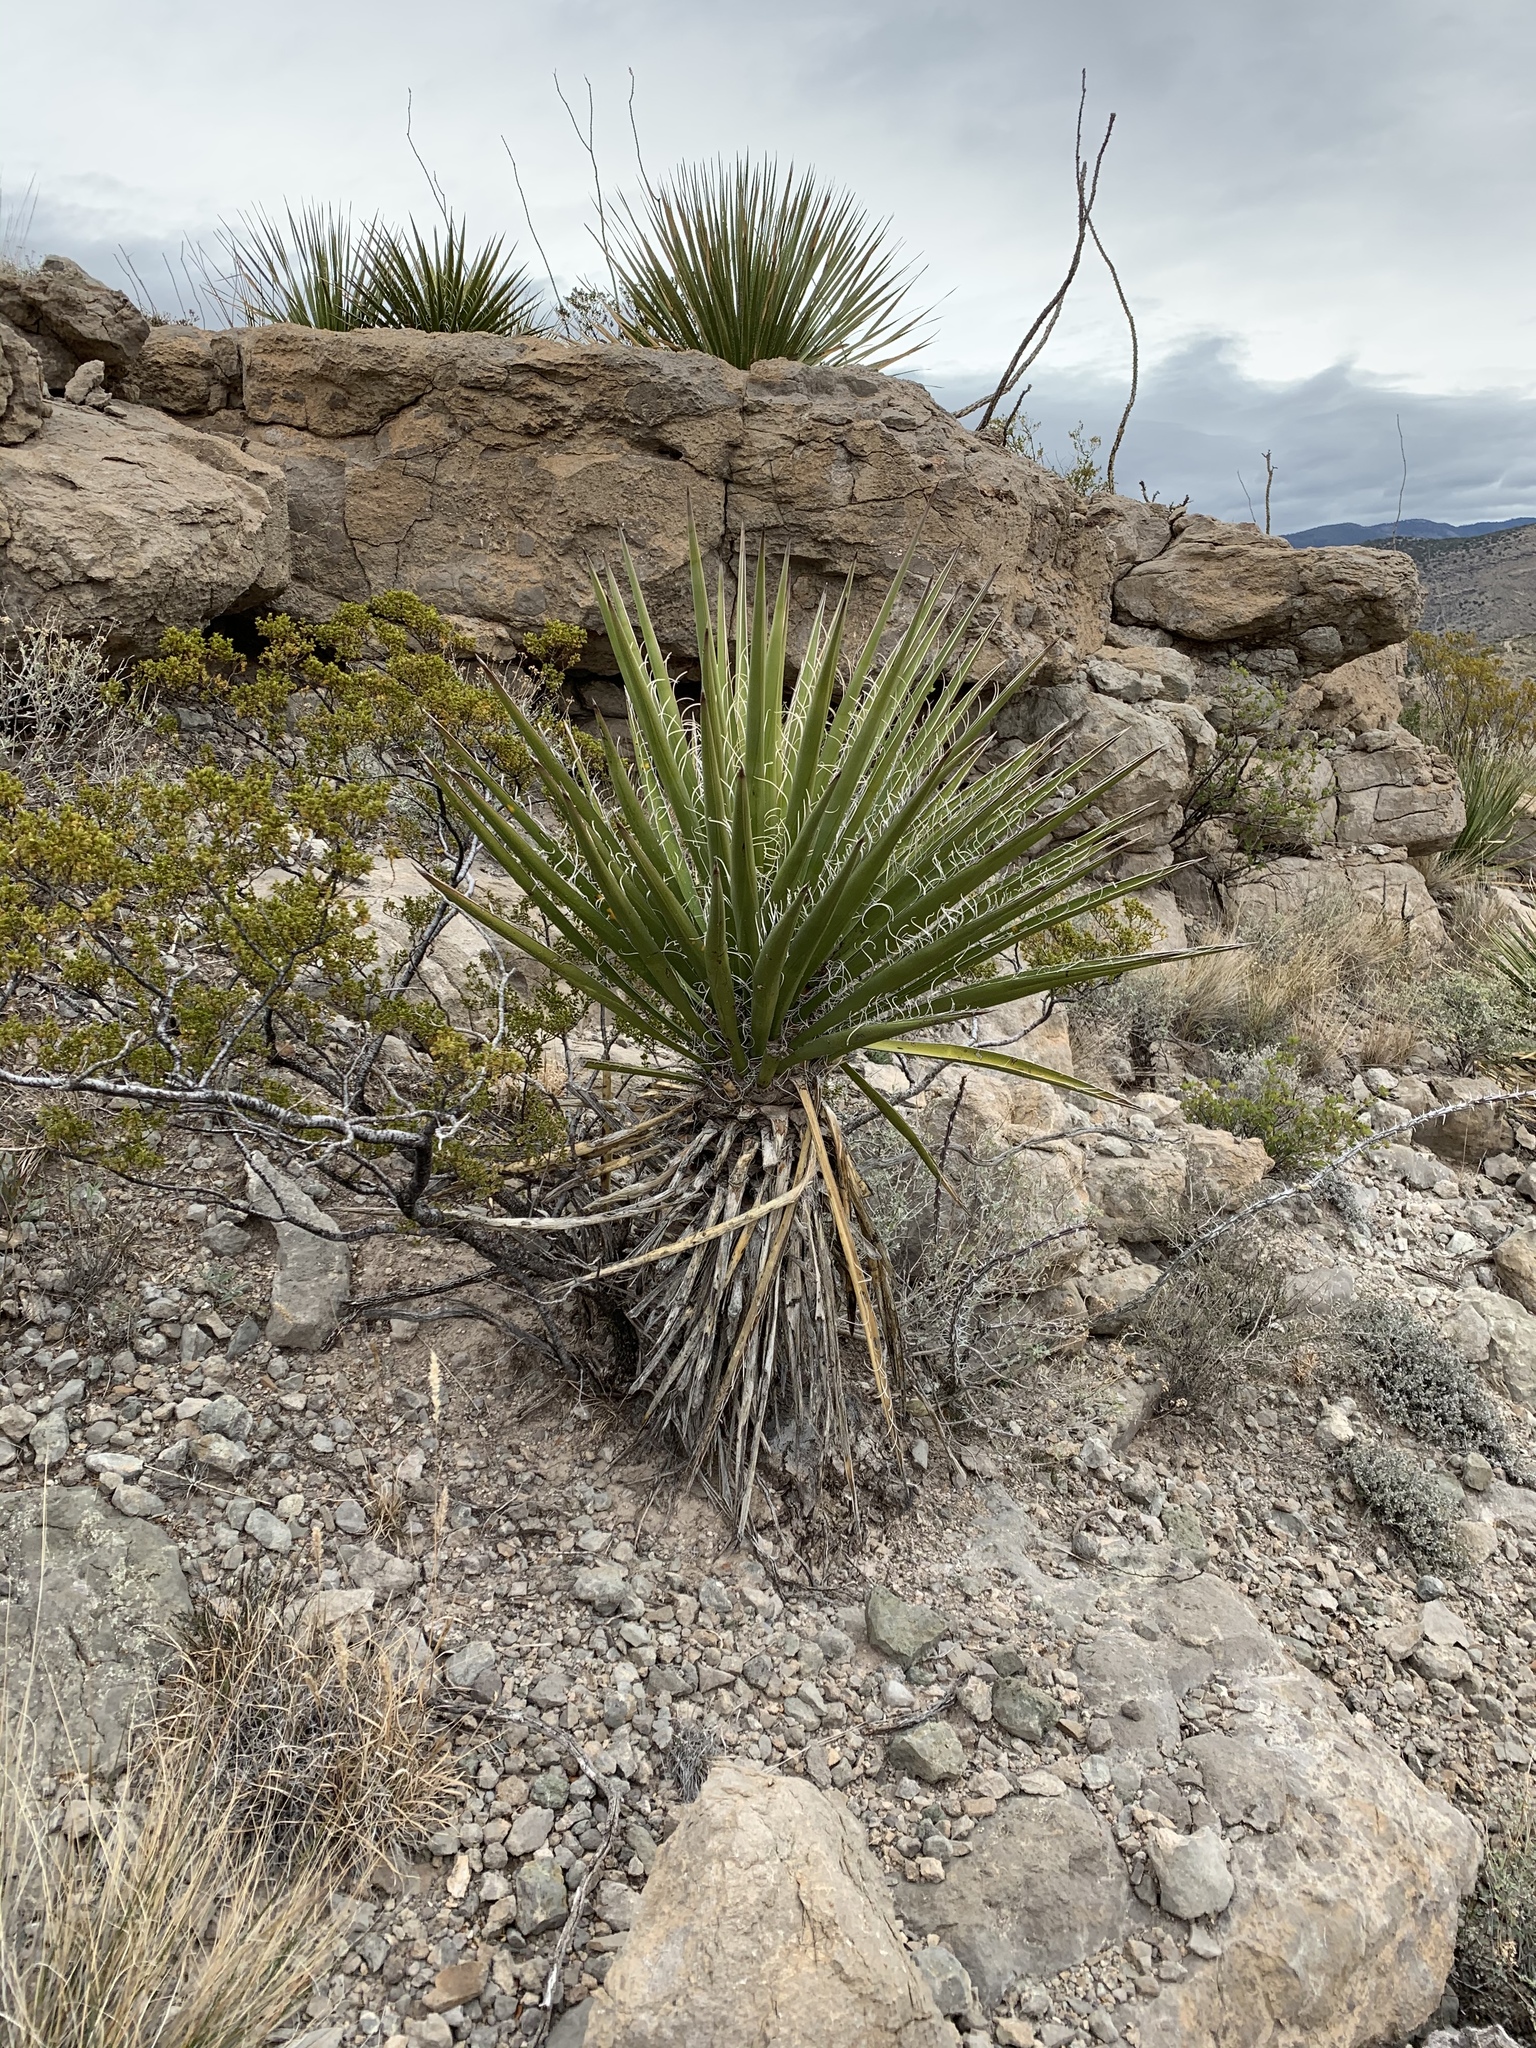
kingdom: Plantae
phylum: Tracheophyta
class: Liliopsida
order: Asparagales
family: Asparagaceae
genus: Yucca
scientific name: Yucca treculiana
